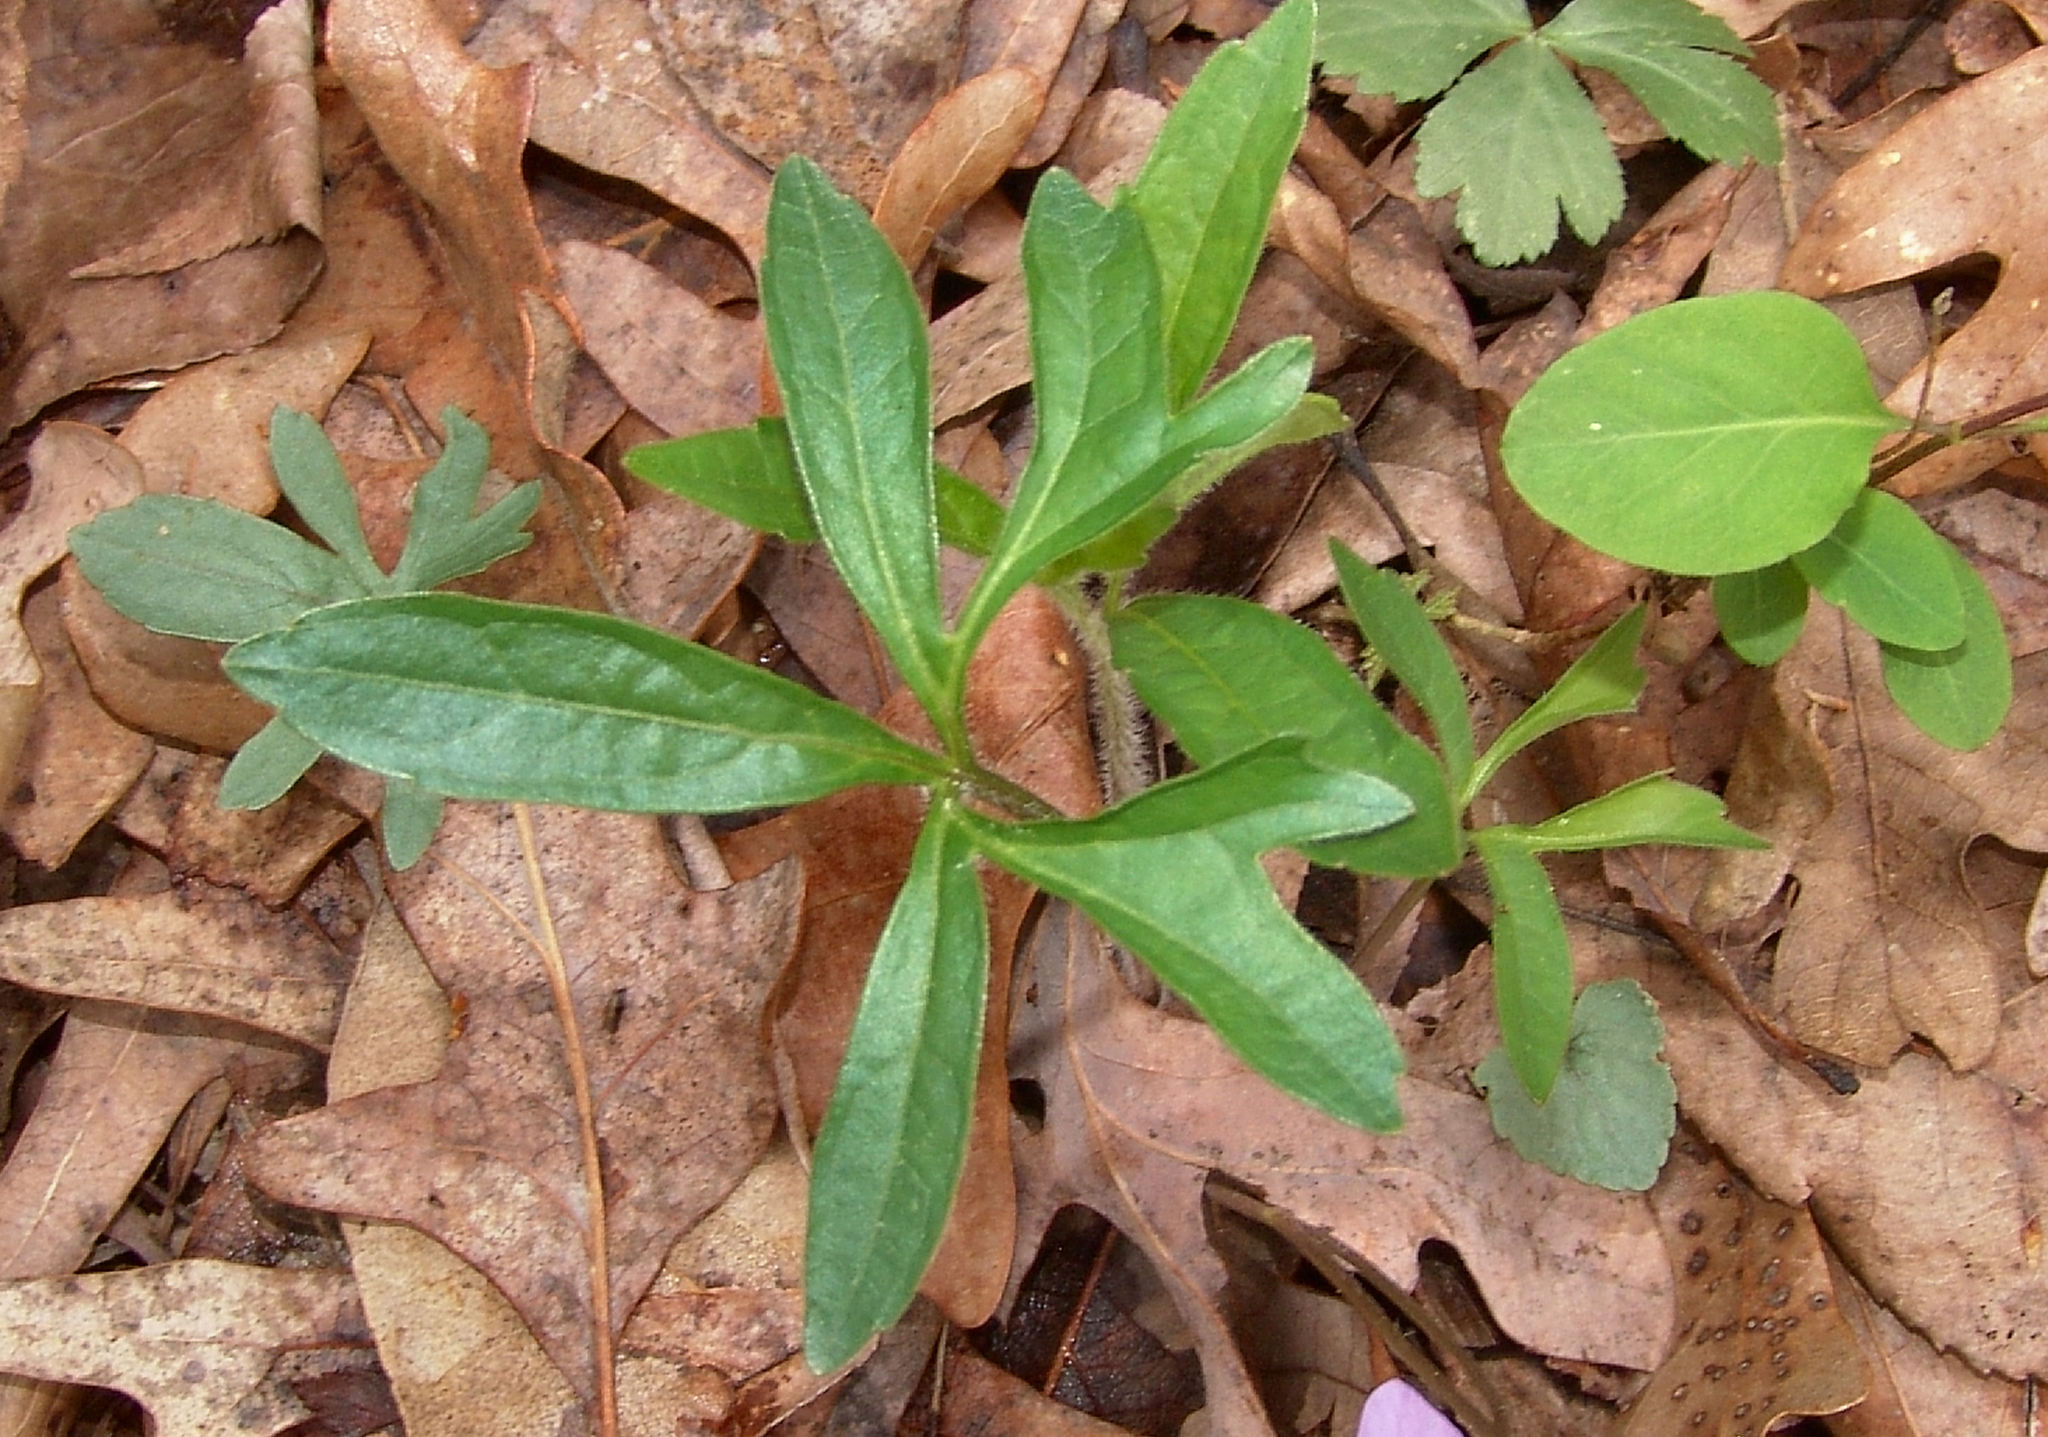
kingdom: Plantae
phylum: Tracheophyta
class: Magnoliopsida
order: Malpighiales
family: Violaceae
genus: Viola
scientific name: Viola palmata
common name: Early blue violet
